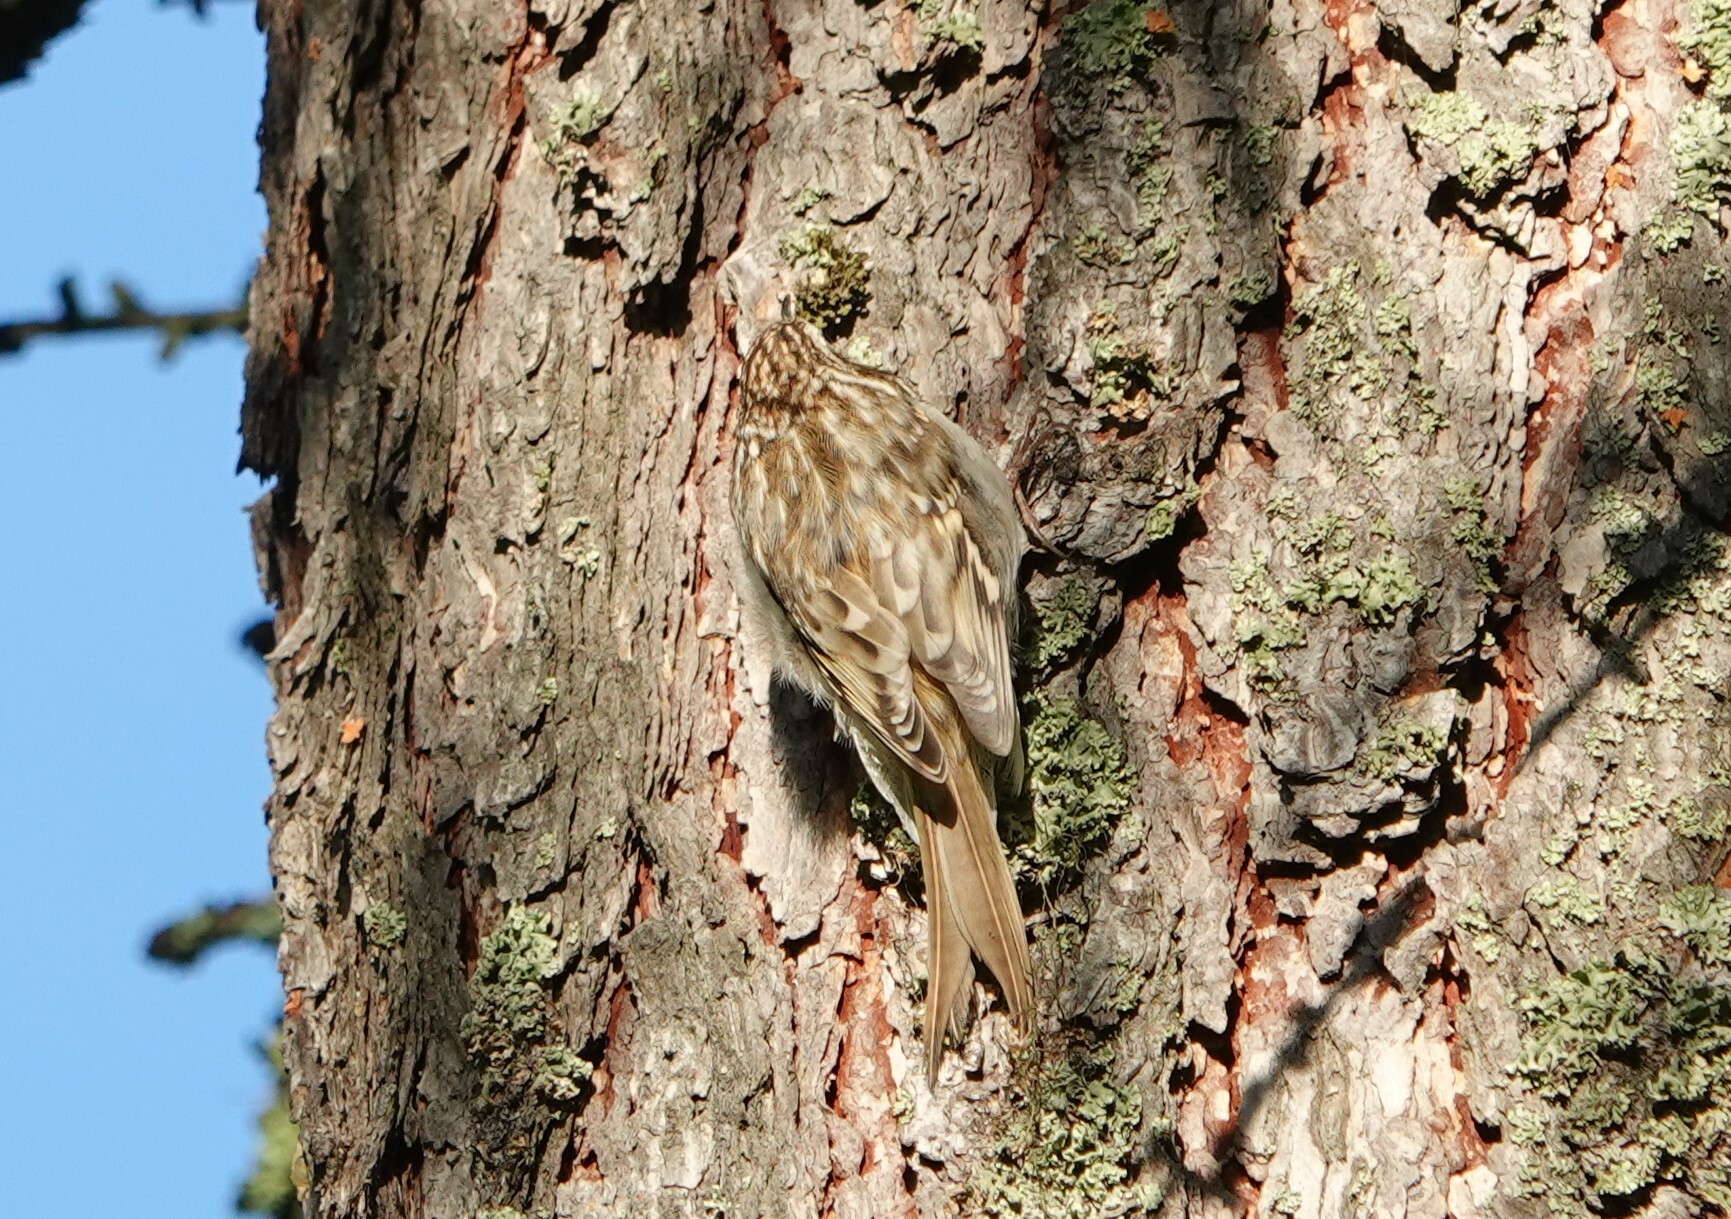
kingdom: Animalia
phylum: Chordata
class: Aves
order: Passeriformes
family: Certhiidae
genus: Certhia
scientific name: Certhia familiaris
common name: Eurasian treecreeper
